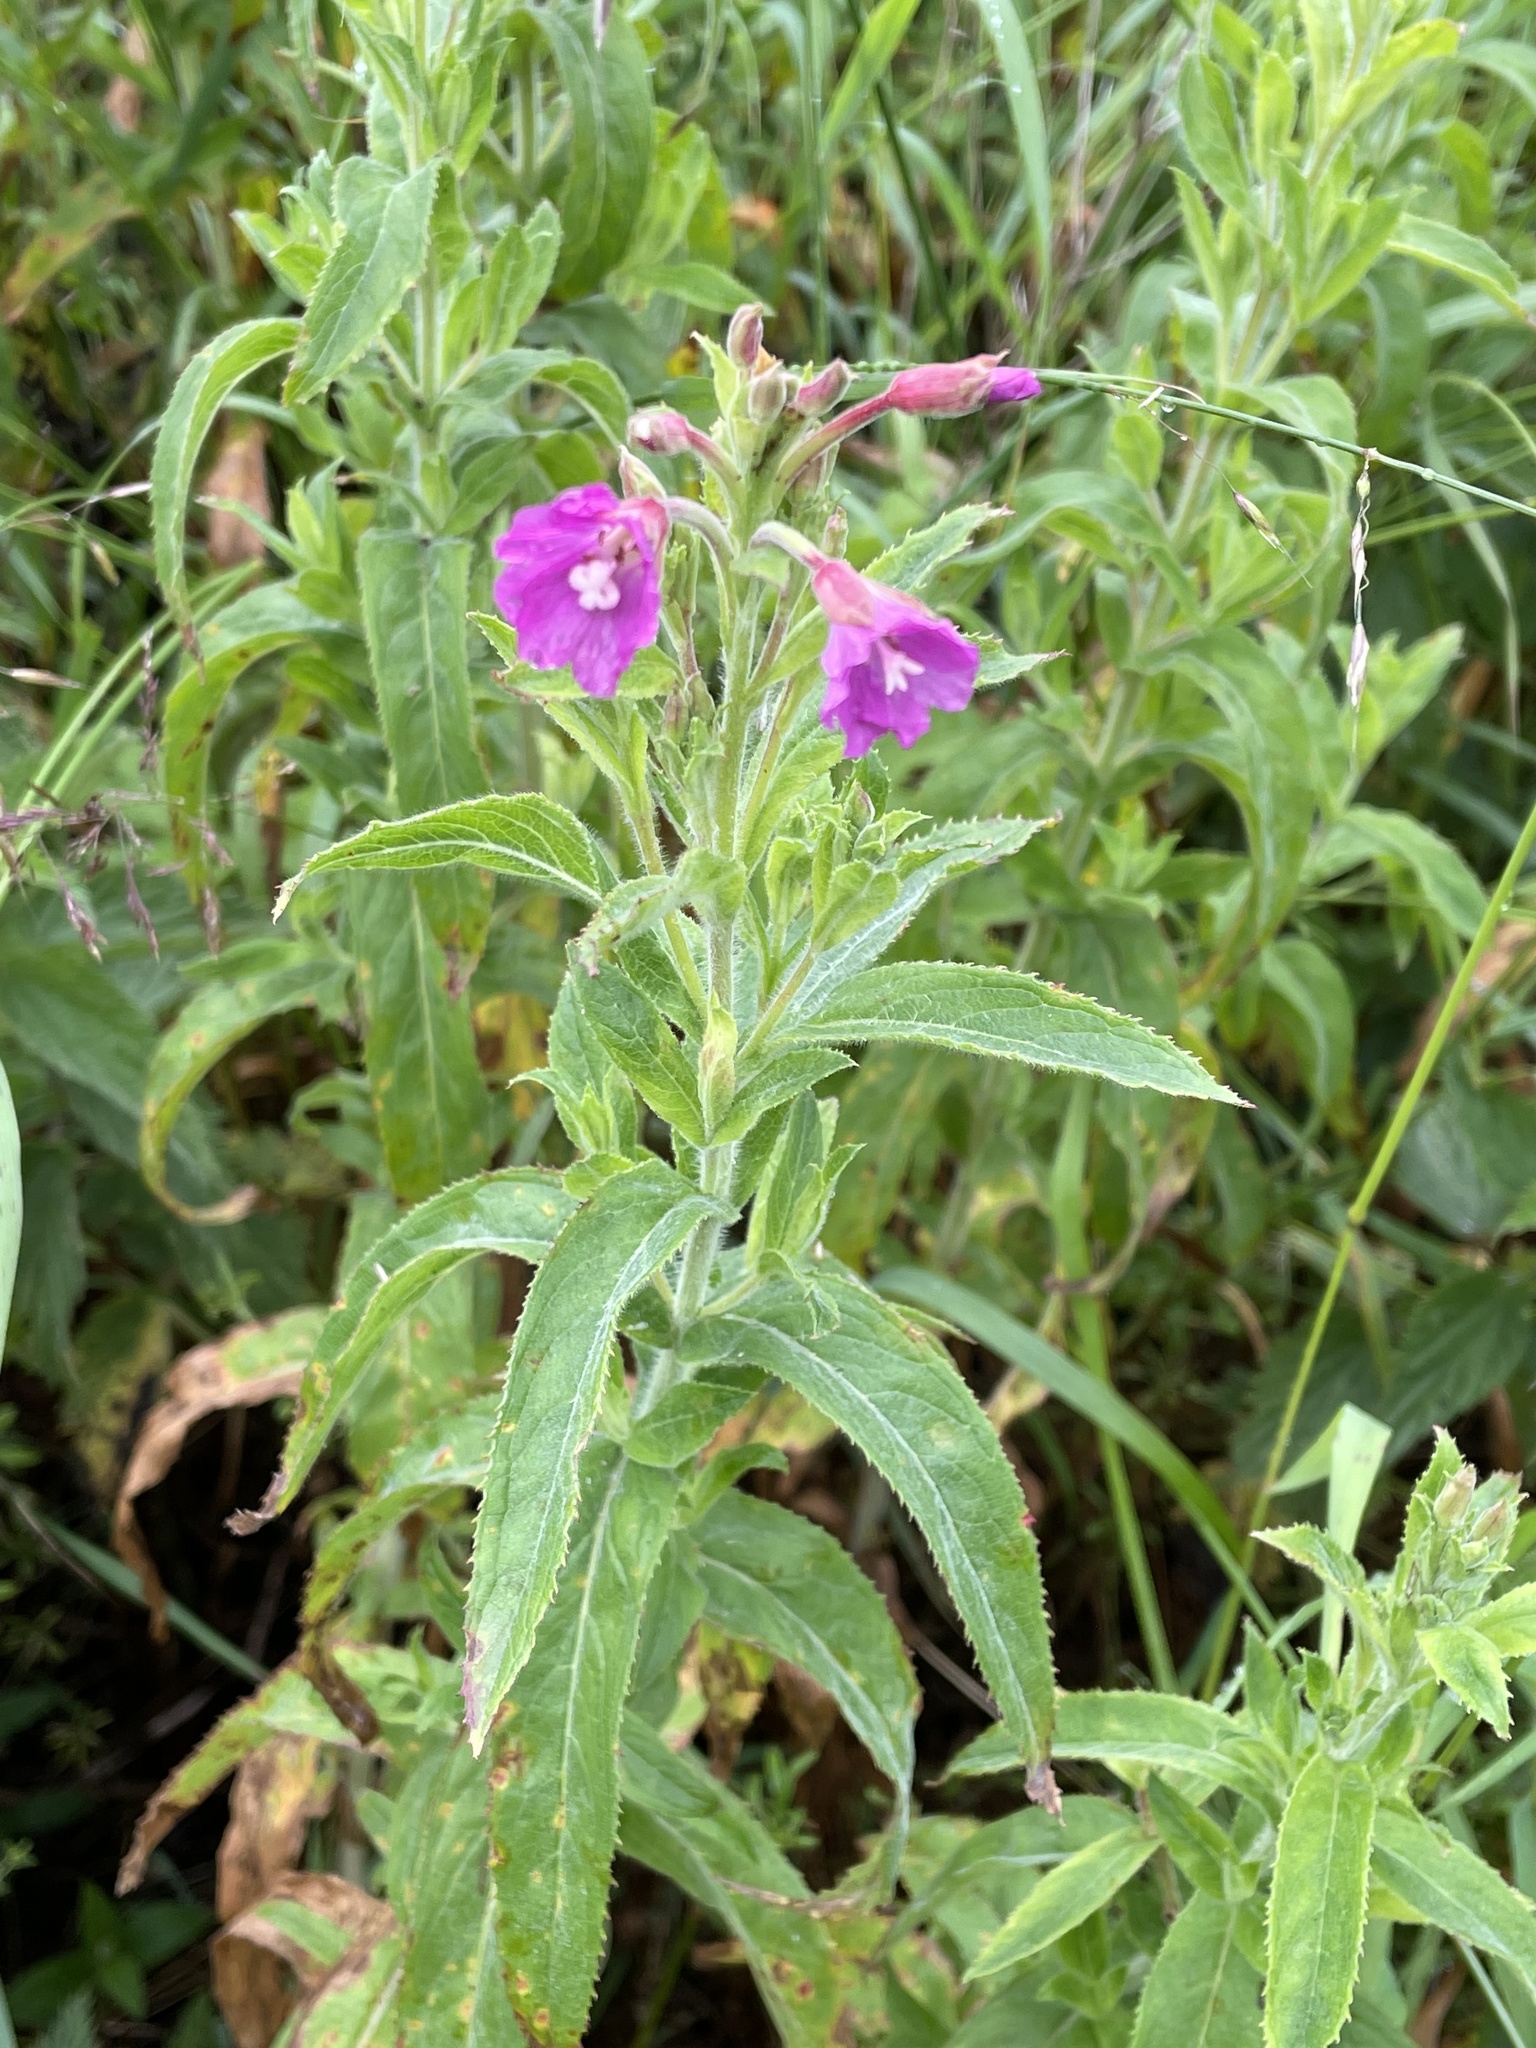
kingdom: Plantae
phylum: Tracheophyta
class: Magnoliopsida
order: Myrtales
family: Onagraceae
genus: Epilobium
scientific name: Epilobium hirsutum
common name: Great willowherb
